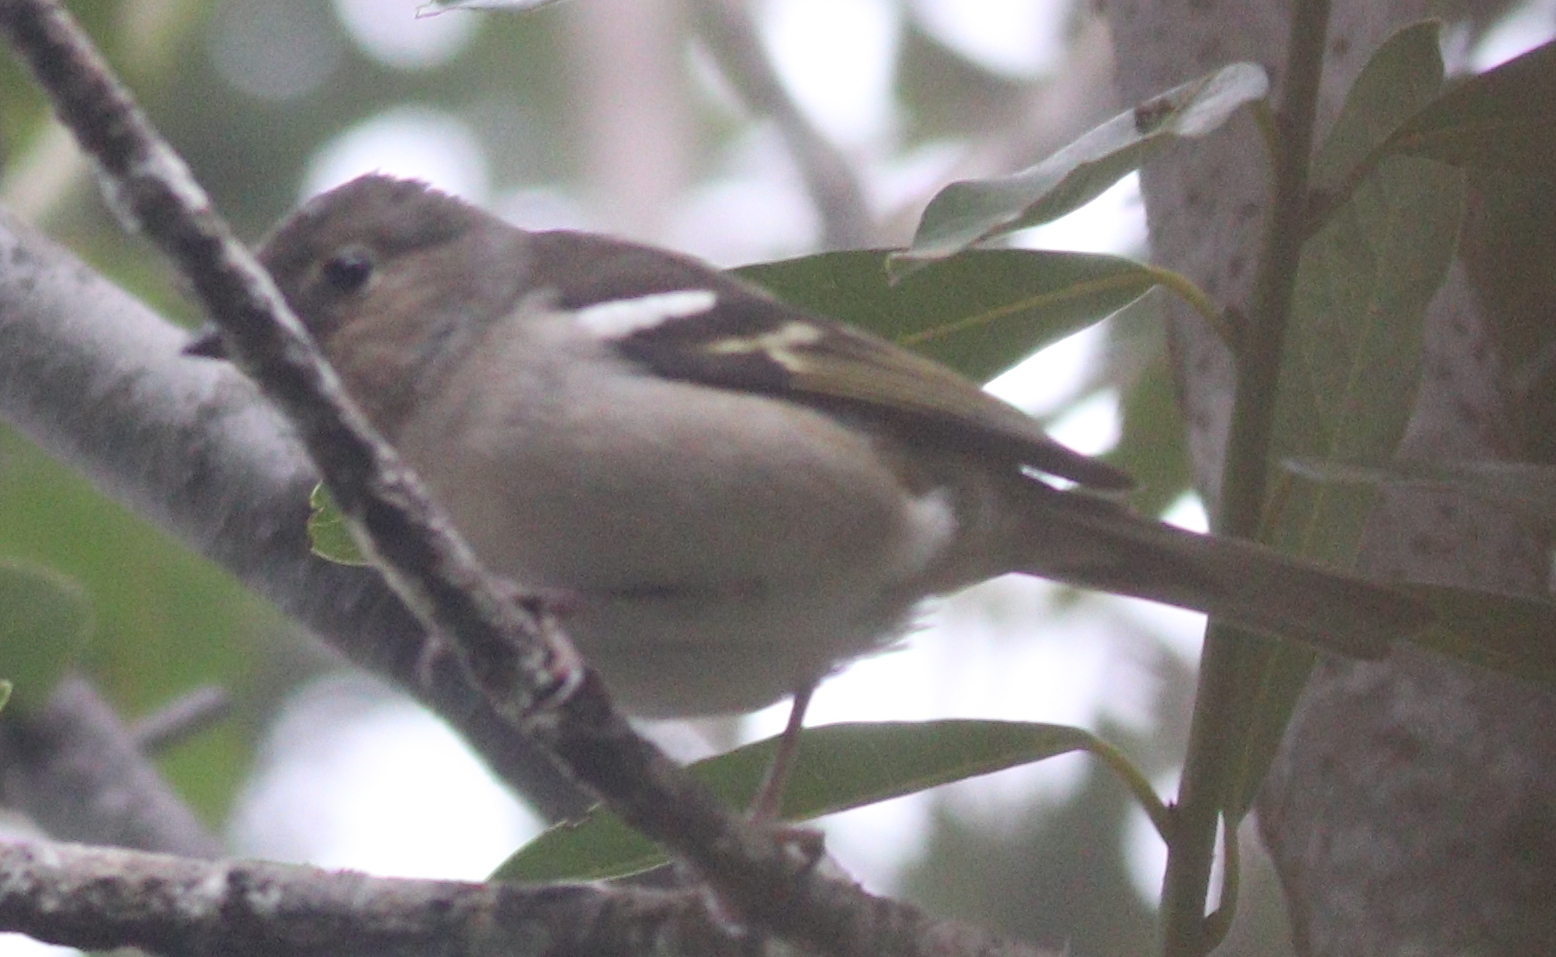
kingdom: Animalia
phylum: Chordata
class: Aves
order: Passeriformes
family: Fringillidae
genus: Fringilla
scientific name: Fringilla canariensis
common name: Canary islands chaffinch
